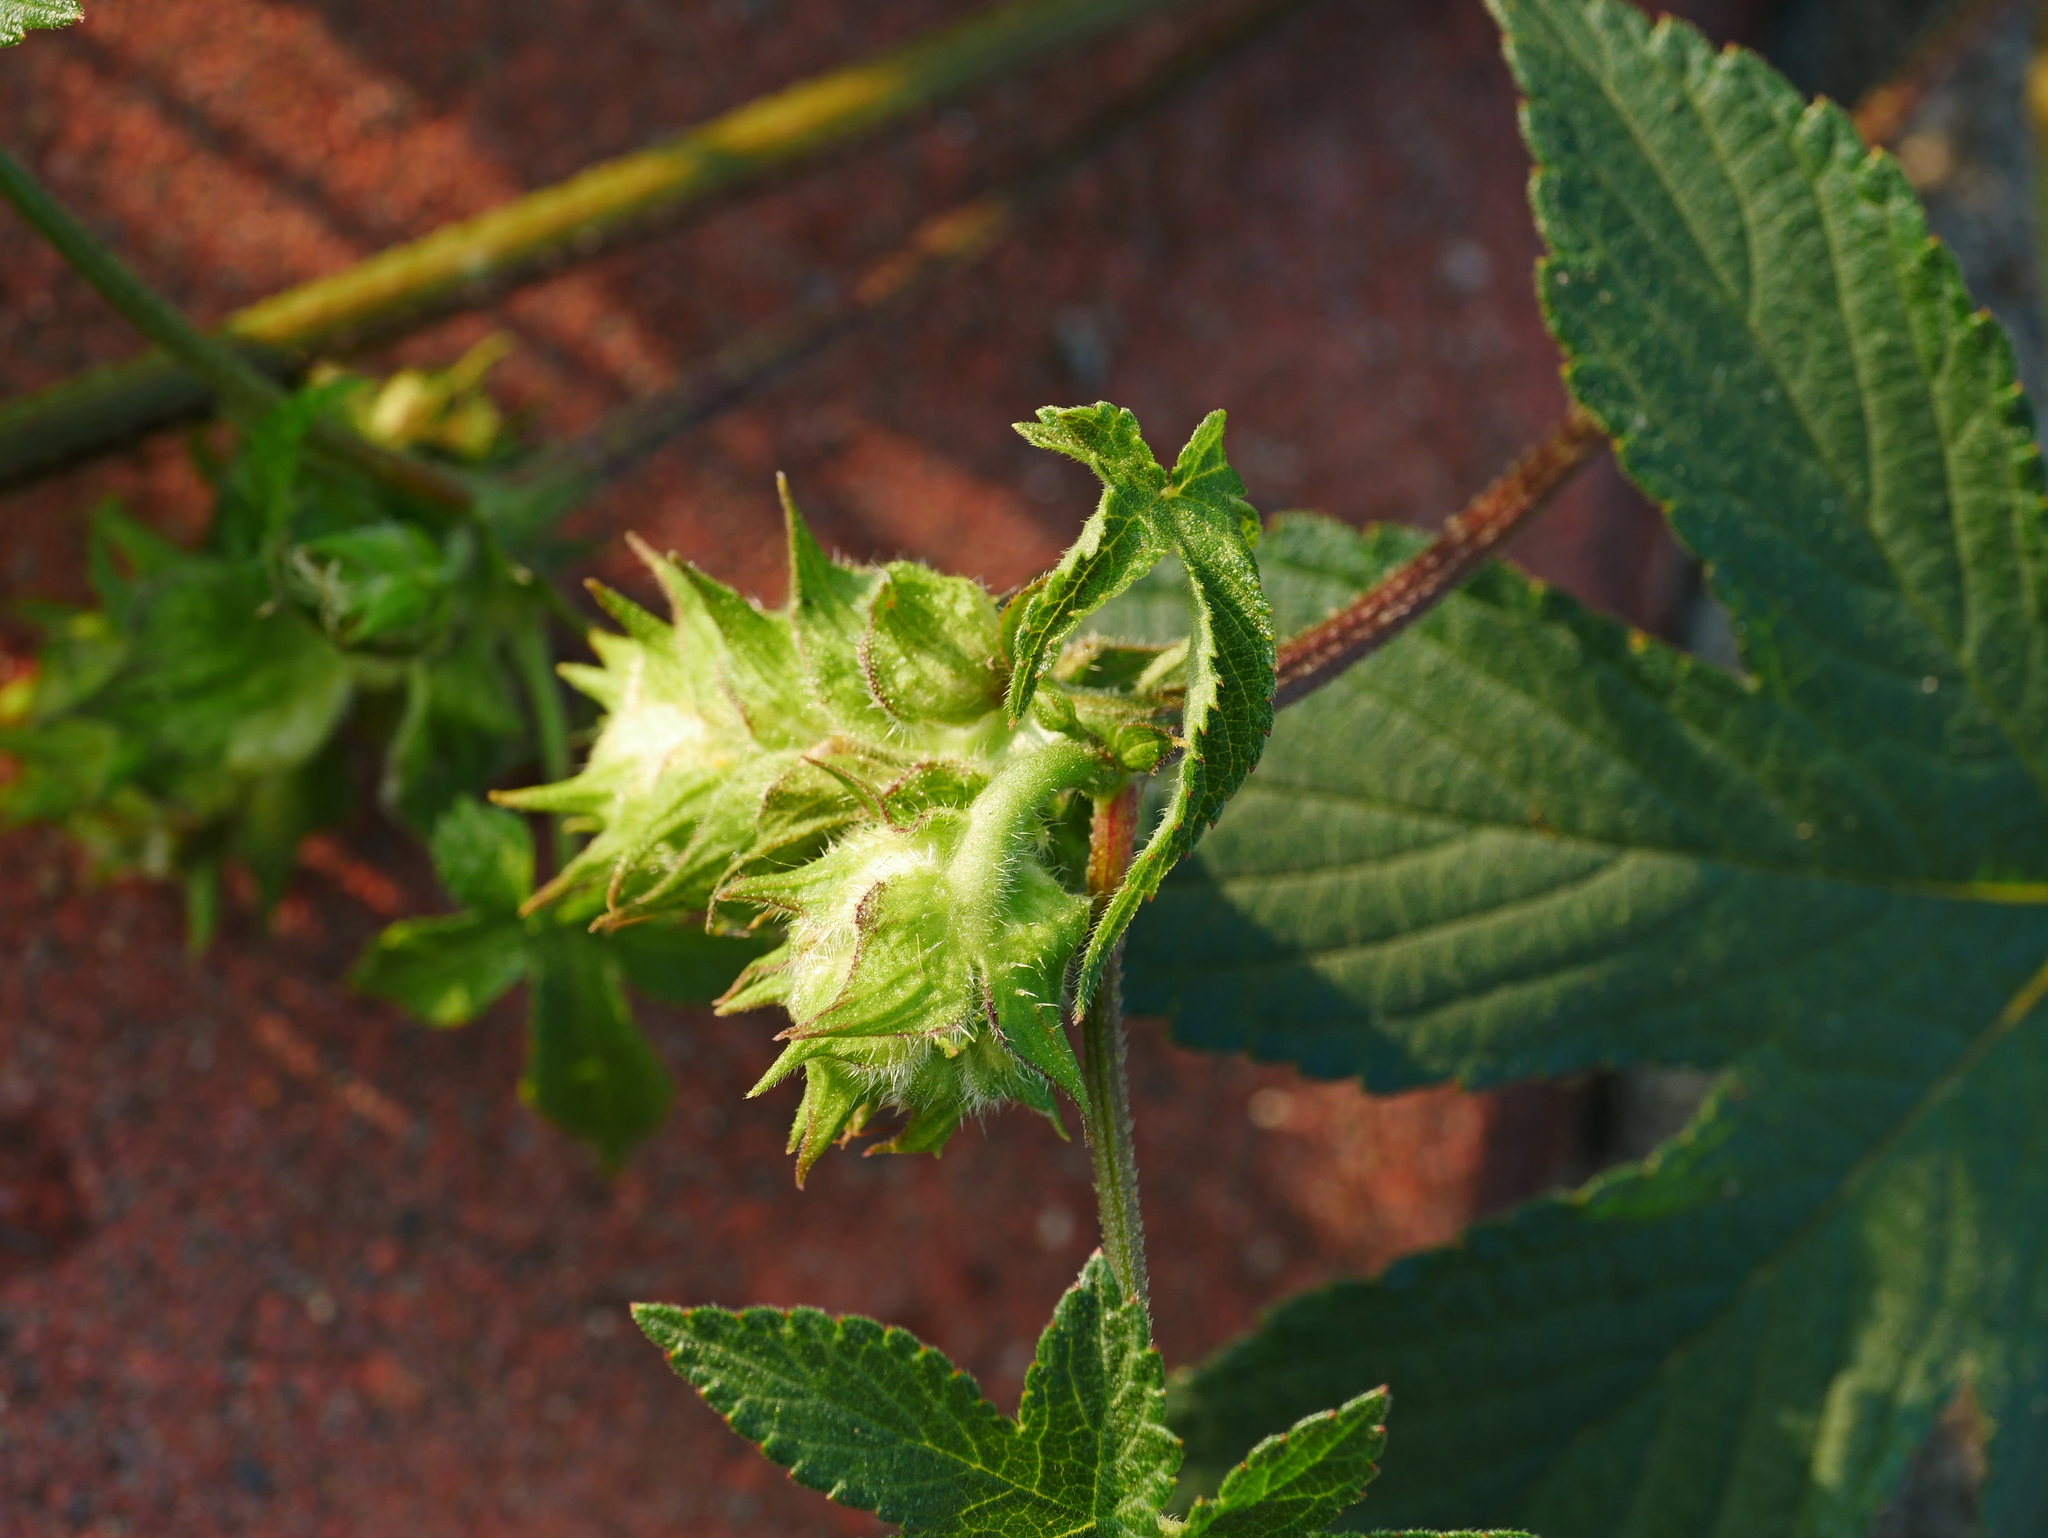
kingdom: Plantae
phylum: Tracheophyta
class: Magnoliopsida
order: Rosales
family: Cannabaceae
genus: Humulus
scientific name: Humulus scandens
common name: Japanese hop
